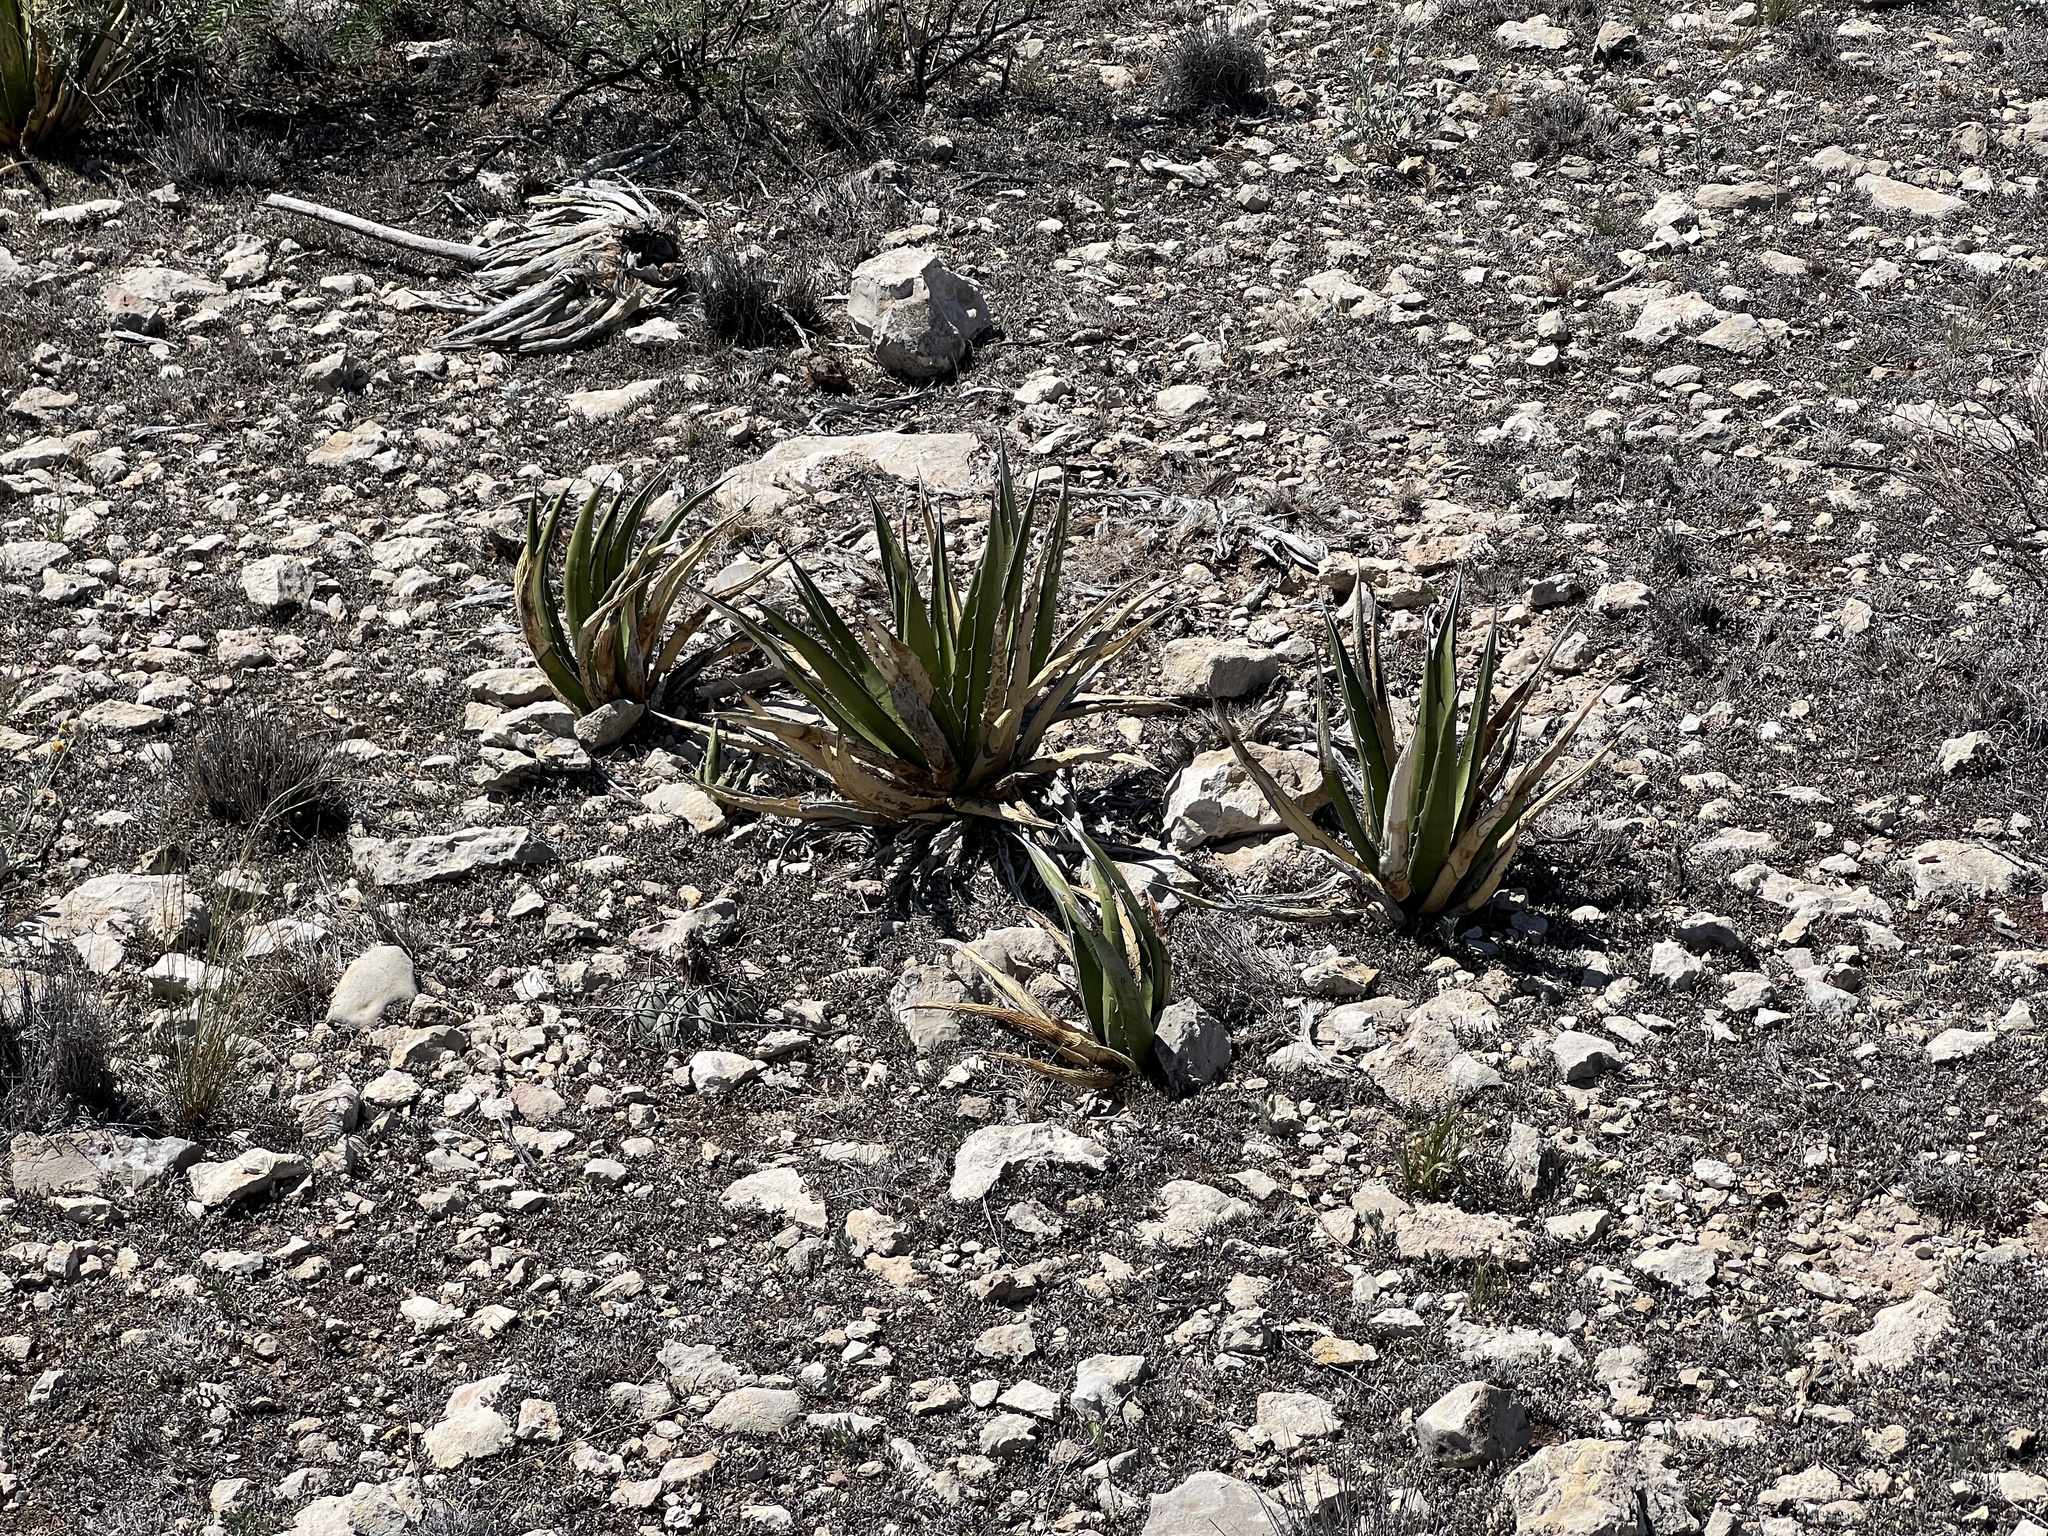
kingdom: Plantae
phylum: Tracheophyta
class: Liliopsida
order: Asparagales
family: Asparagaceae
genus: Agave
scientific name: Agave lechuguilla
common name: Lecheguilla agave
